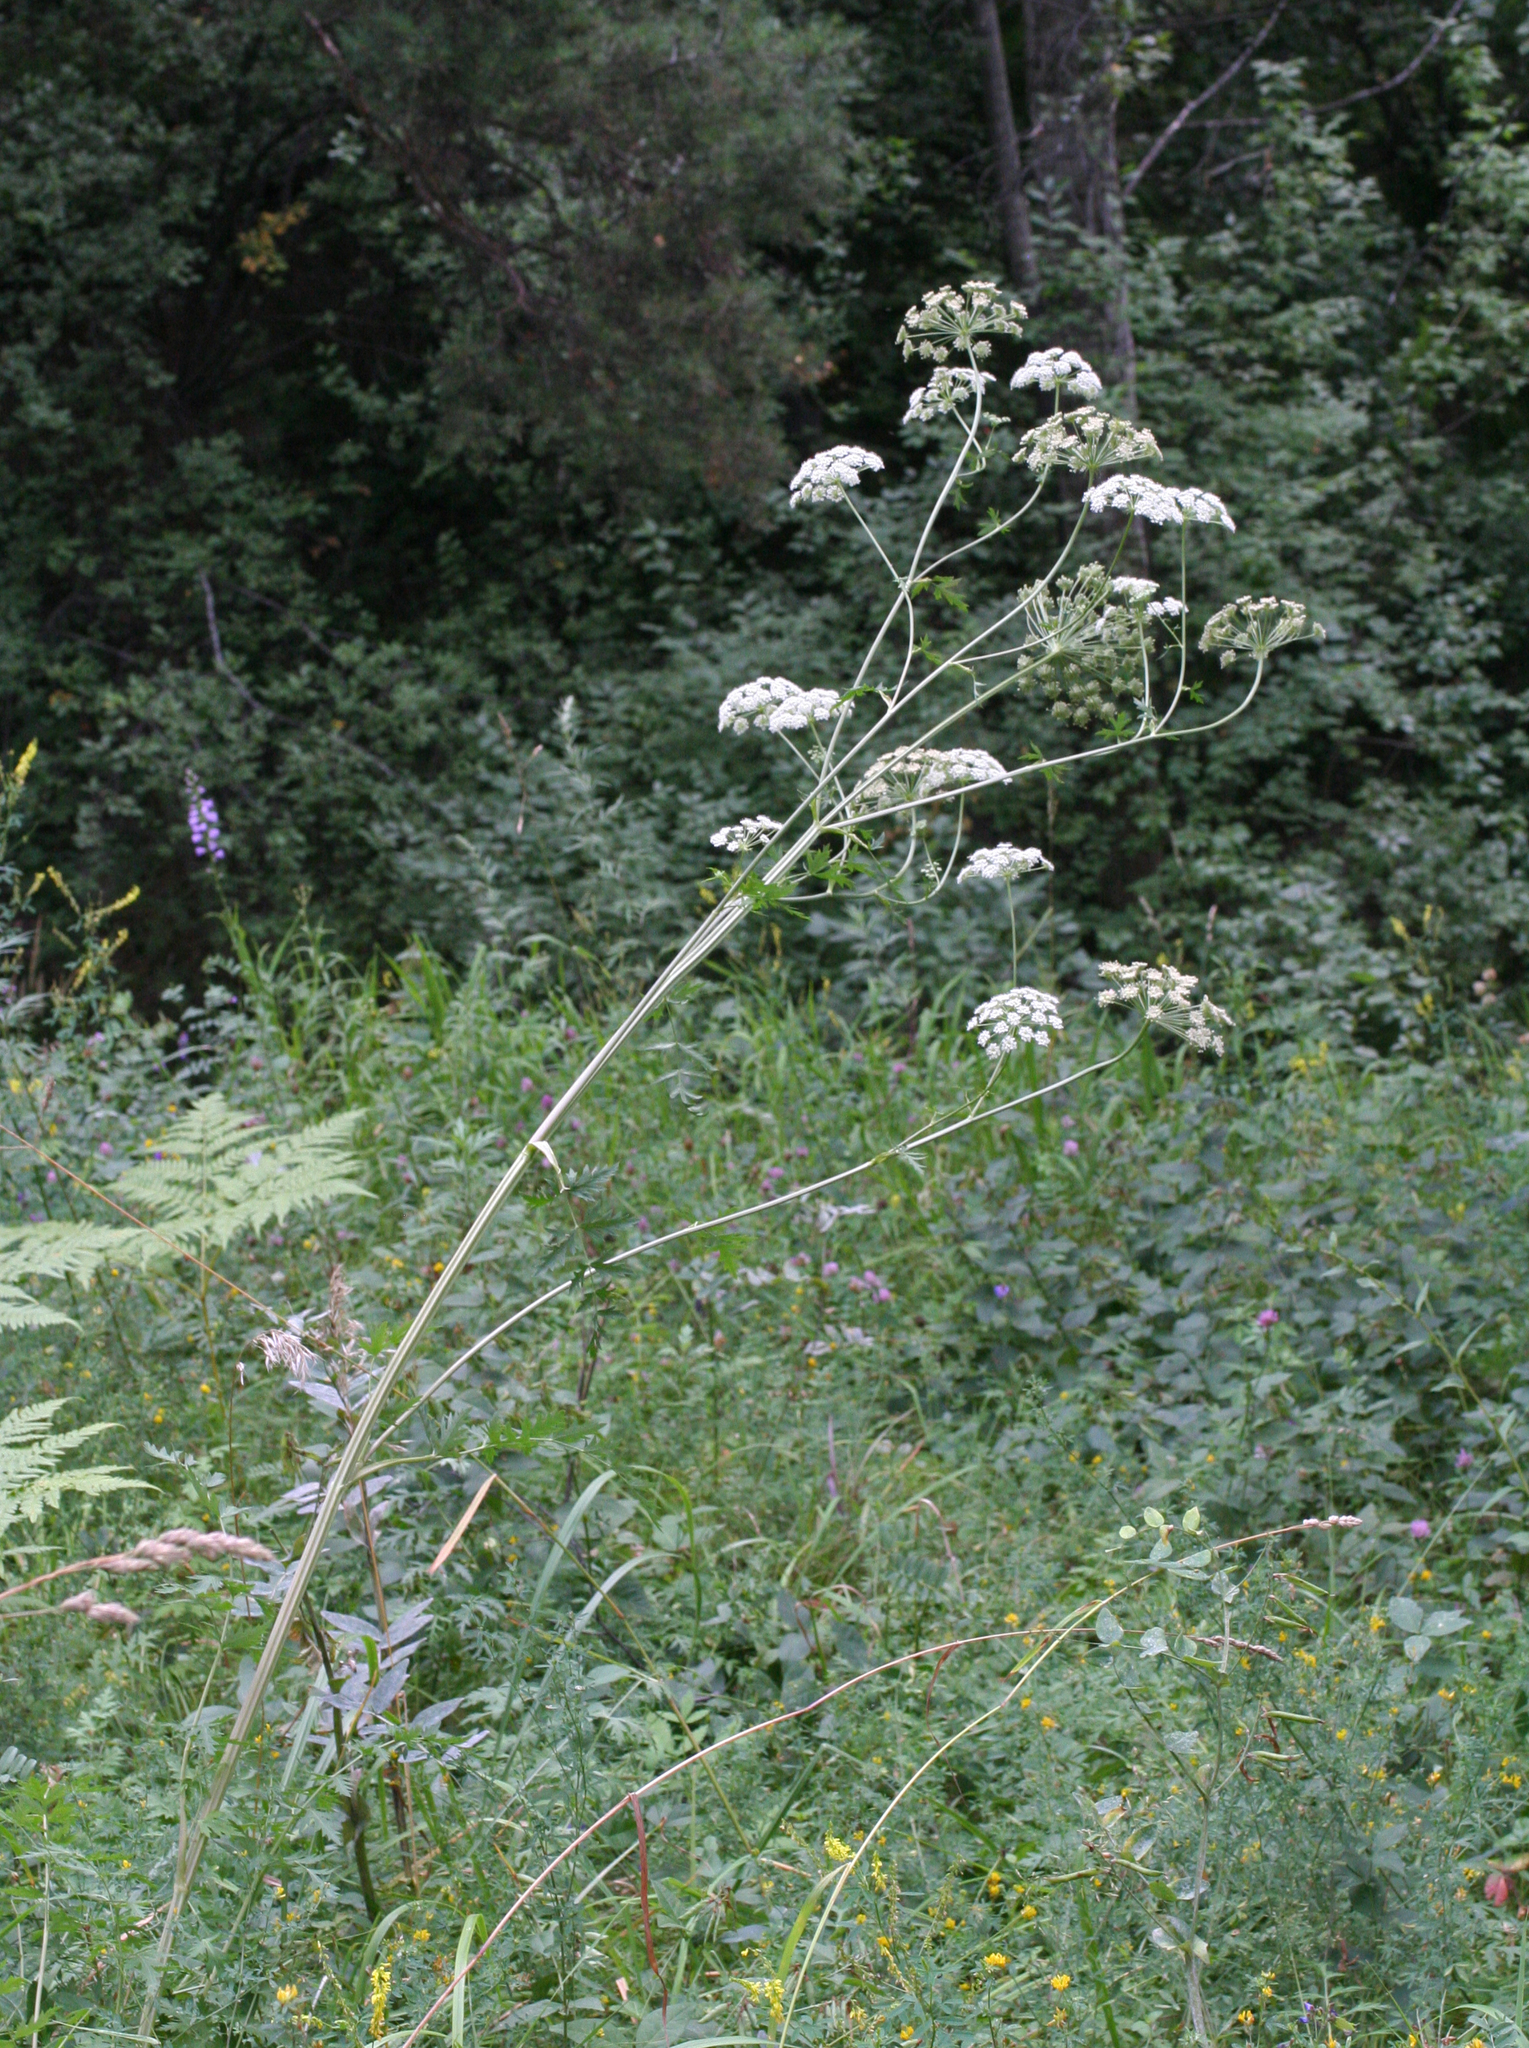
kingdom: Plantae
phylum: Tracheophyta
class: Magnoliopsida
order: Apiales
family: Apiaceae
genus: Seseli
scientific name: Seseli libanotis
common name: Mooncarrot
